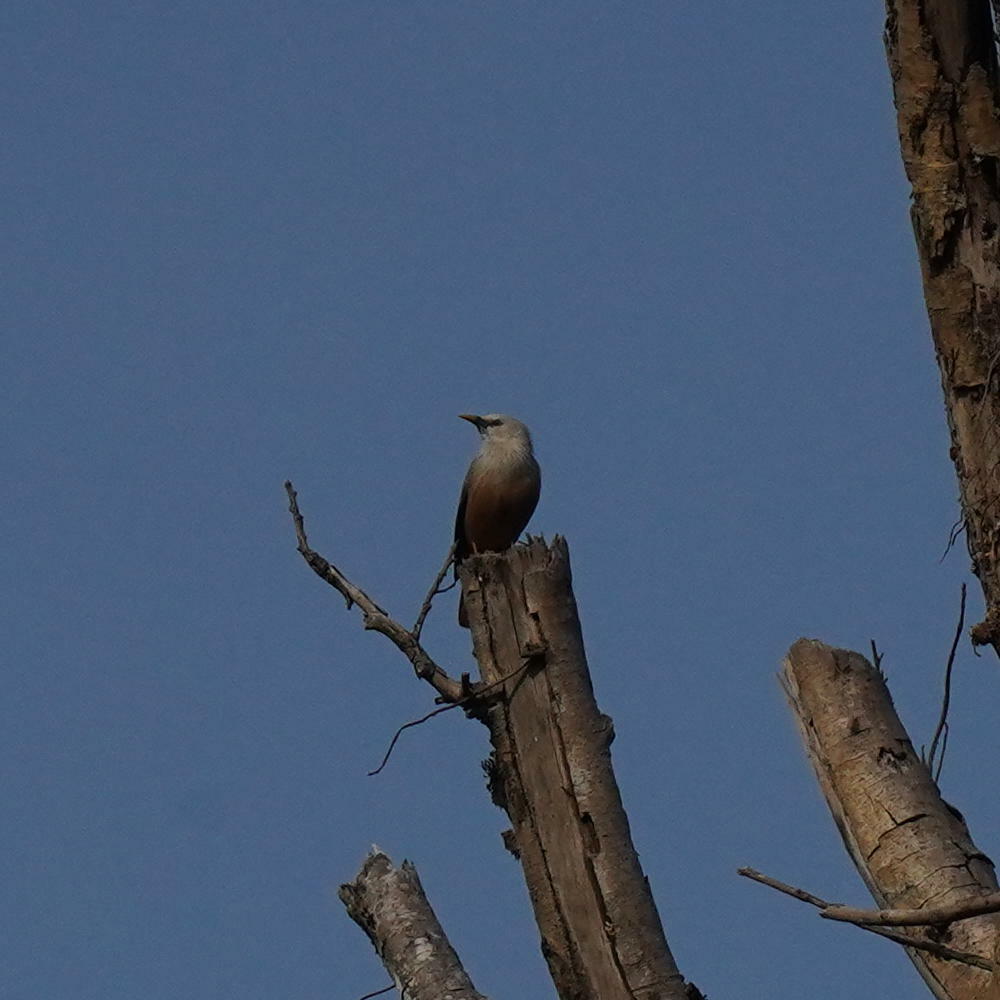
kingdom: Animalia
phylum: Chordata
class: Aves
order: Passeriformes
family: Sturnidae
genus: Sturnia
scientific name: Sturnia blythii
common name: Malabar starling
